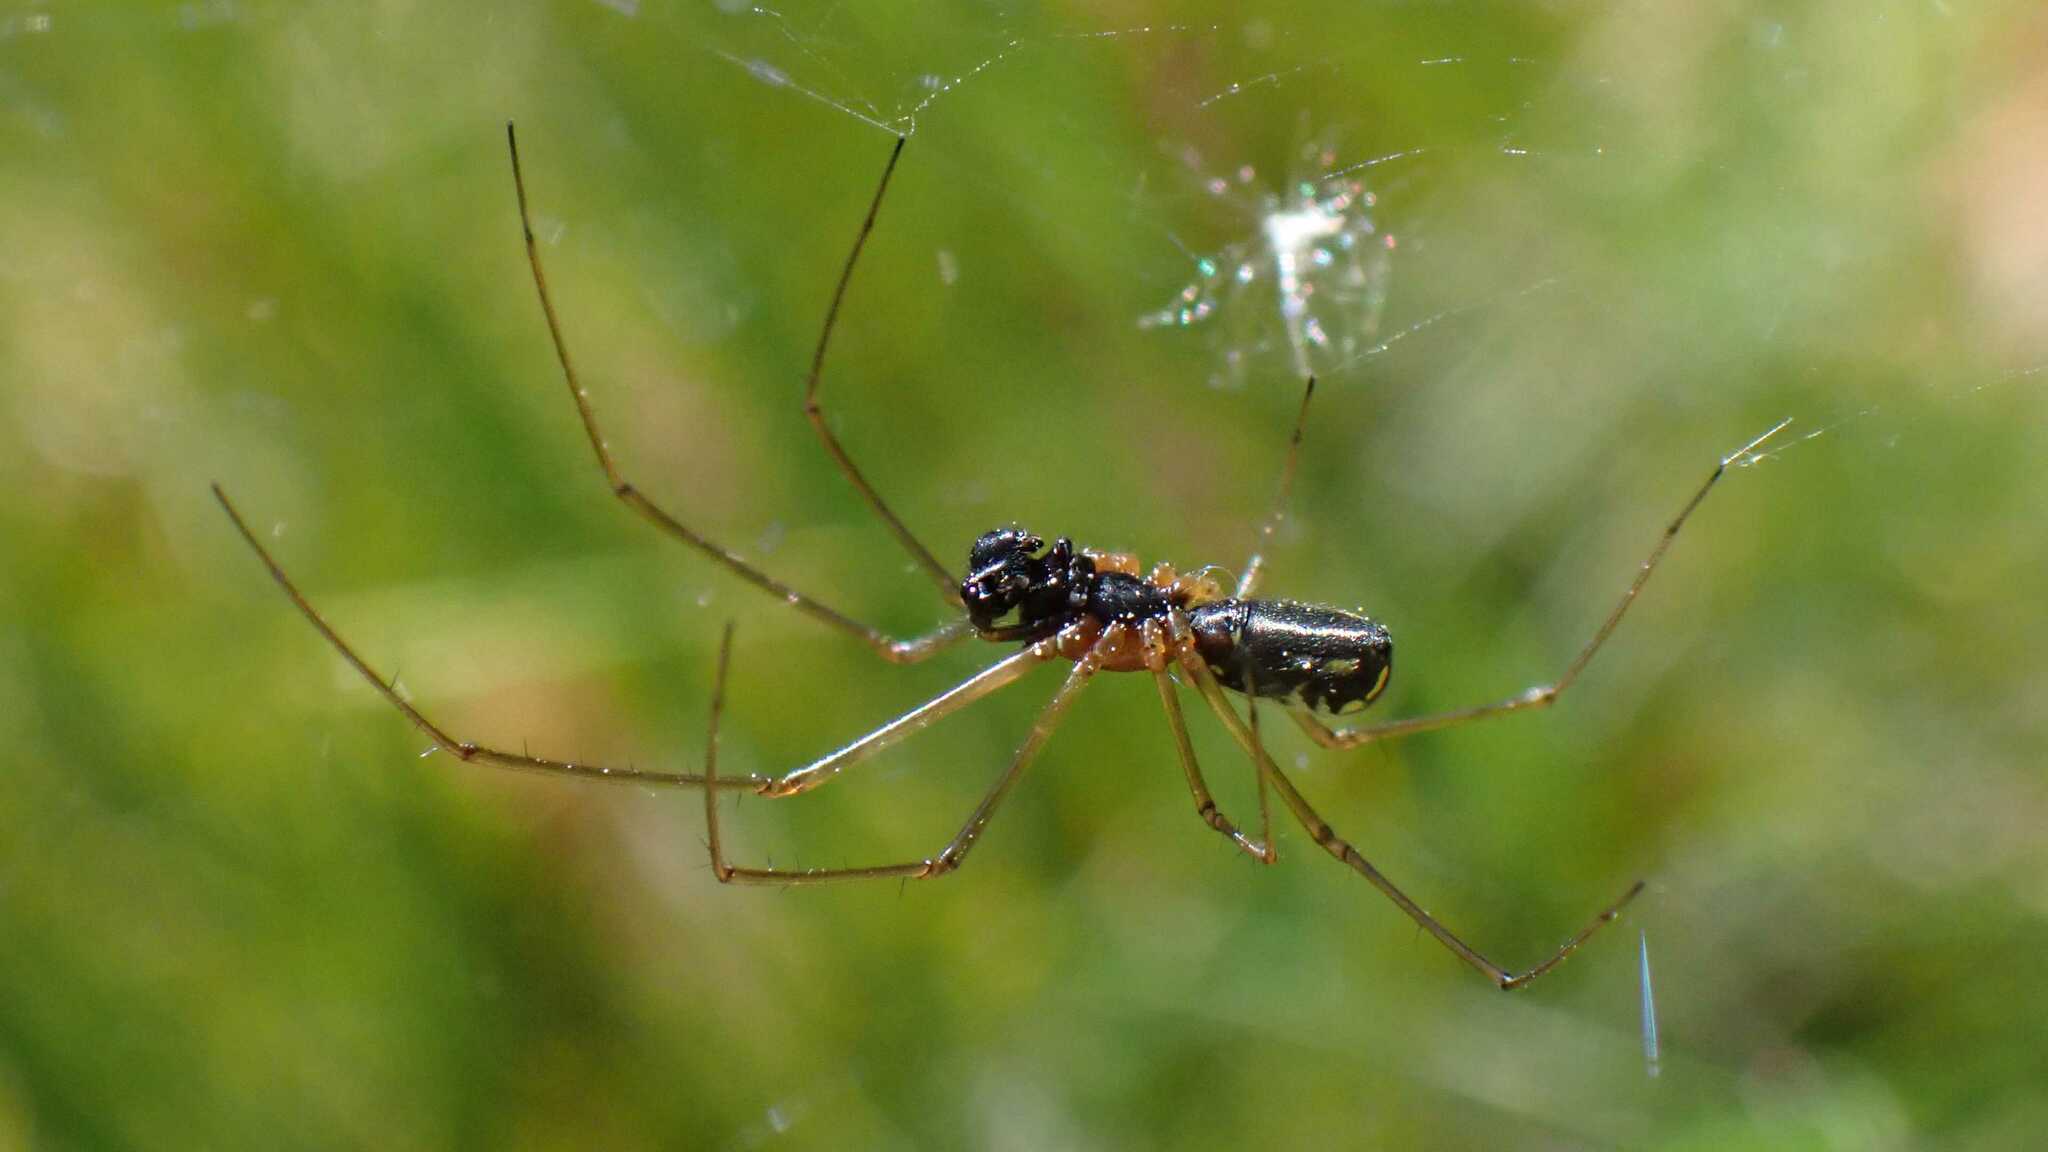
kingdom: Animalia
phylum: Arthropoda
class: Arachnida
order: Araneae
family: Linyphiidae
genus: Neriene
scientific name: Neriene radiata
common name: Filmy dome spider
